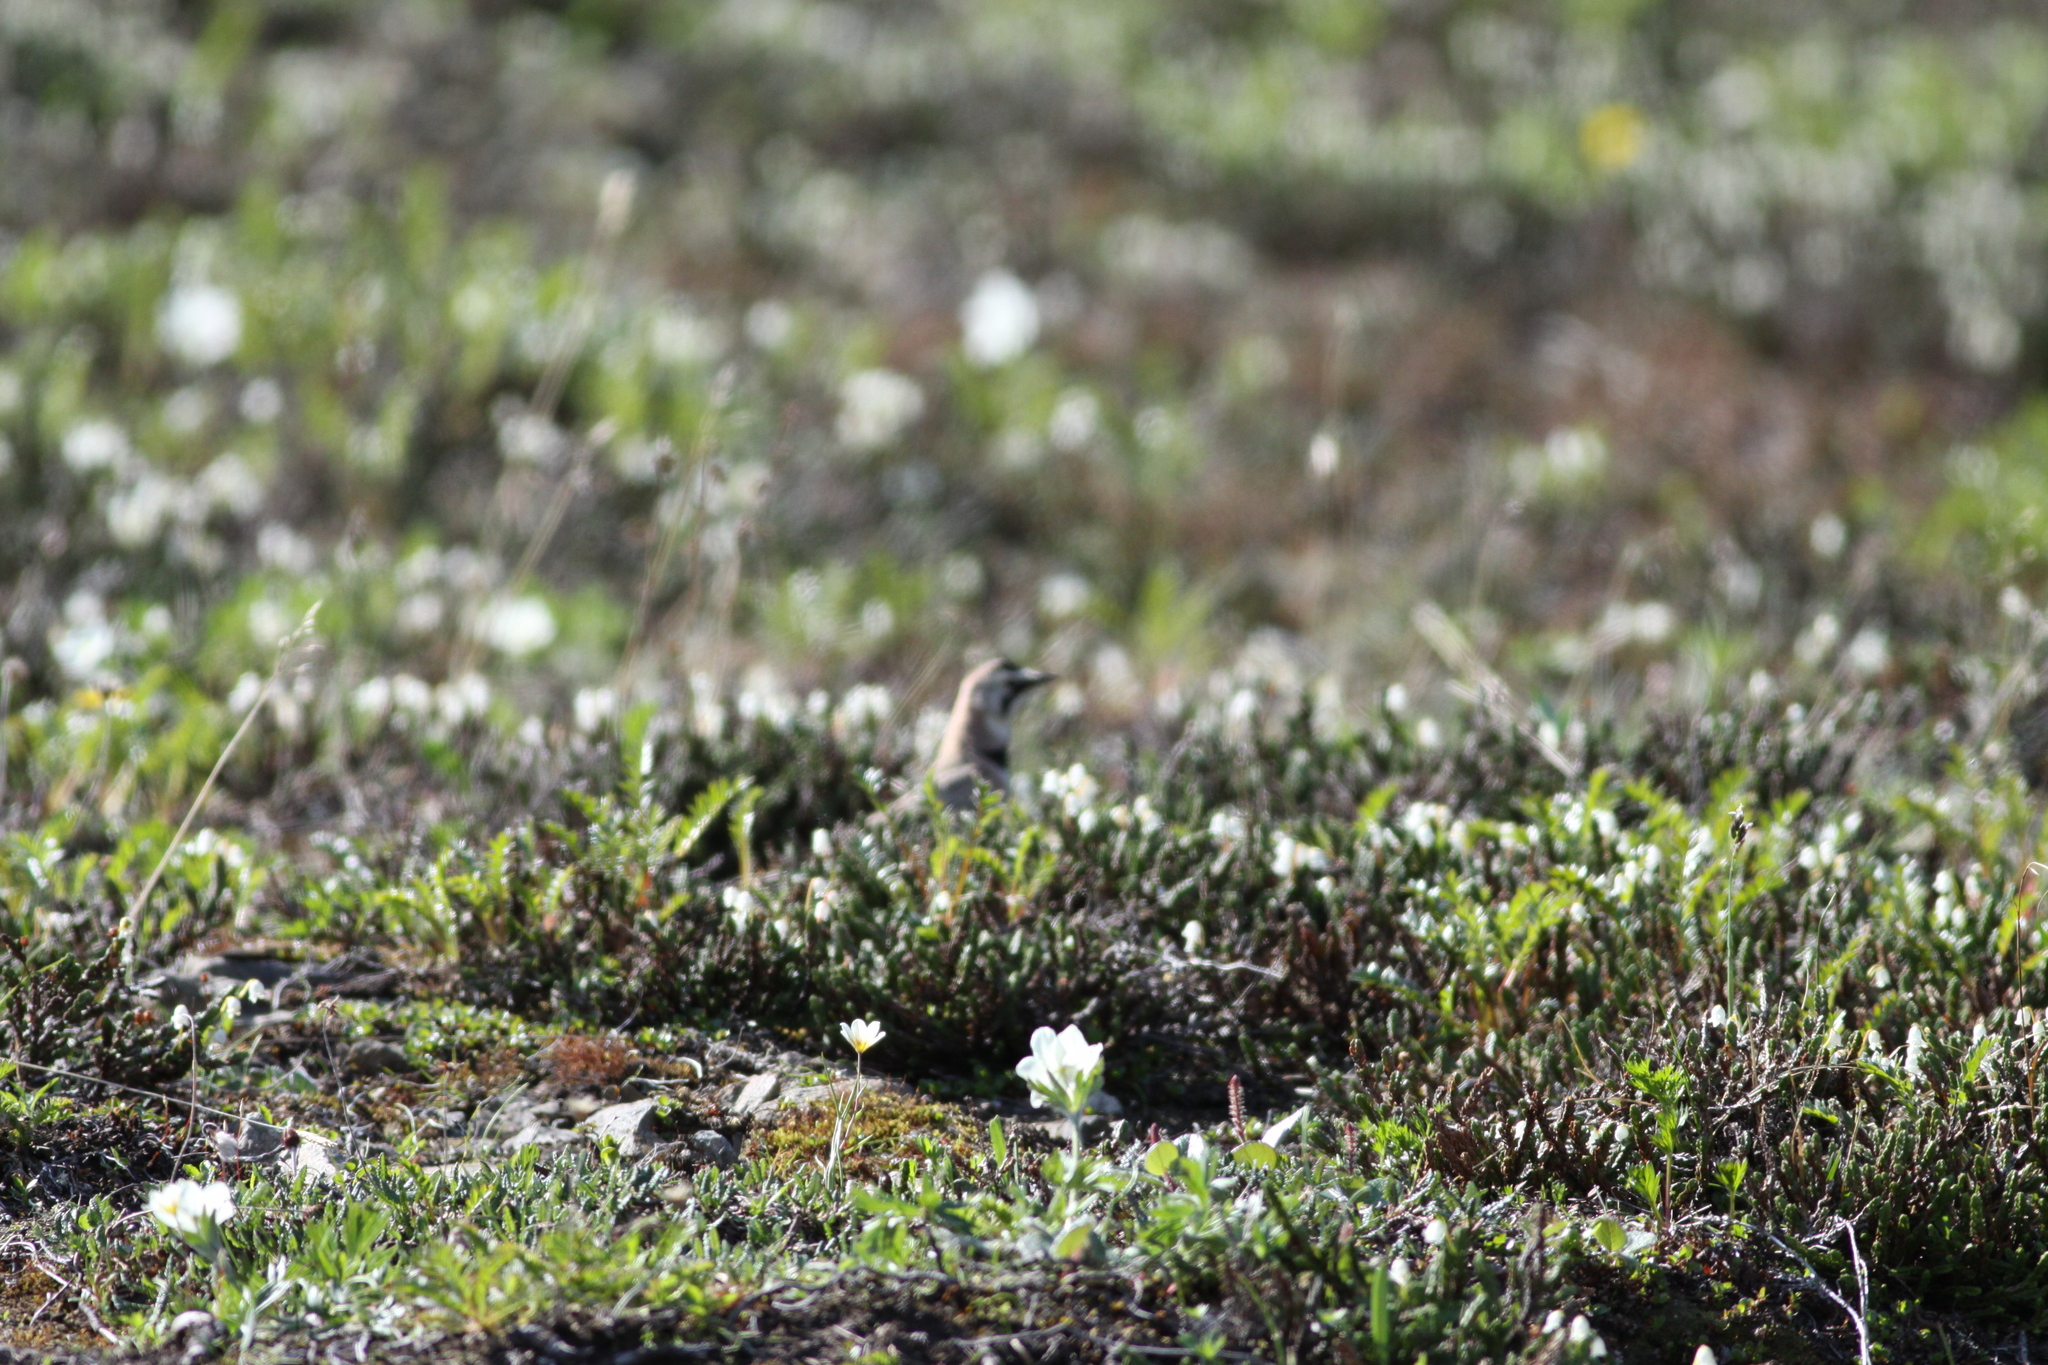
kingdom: Animalia
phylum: Chordata
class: Aves
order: Passeriformes
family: Alaudidae
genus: Eremophila
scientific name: Eremophila alpestris
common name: Horned lark
